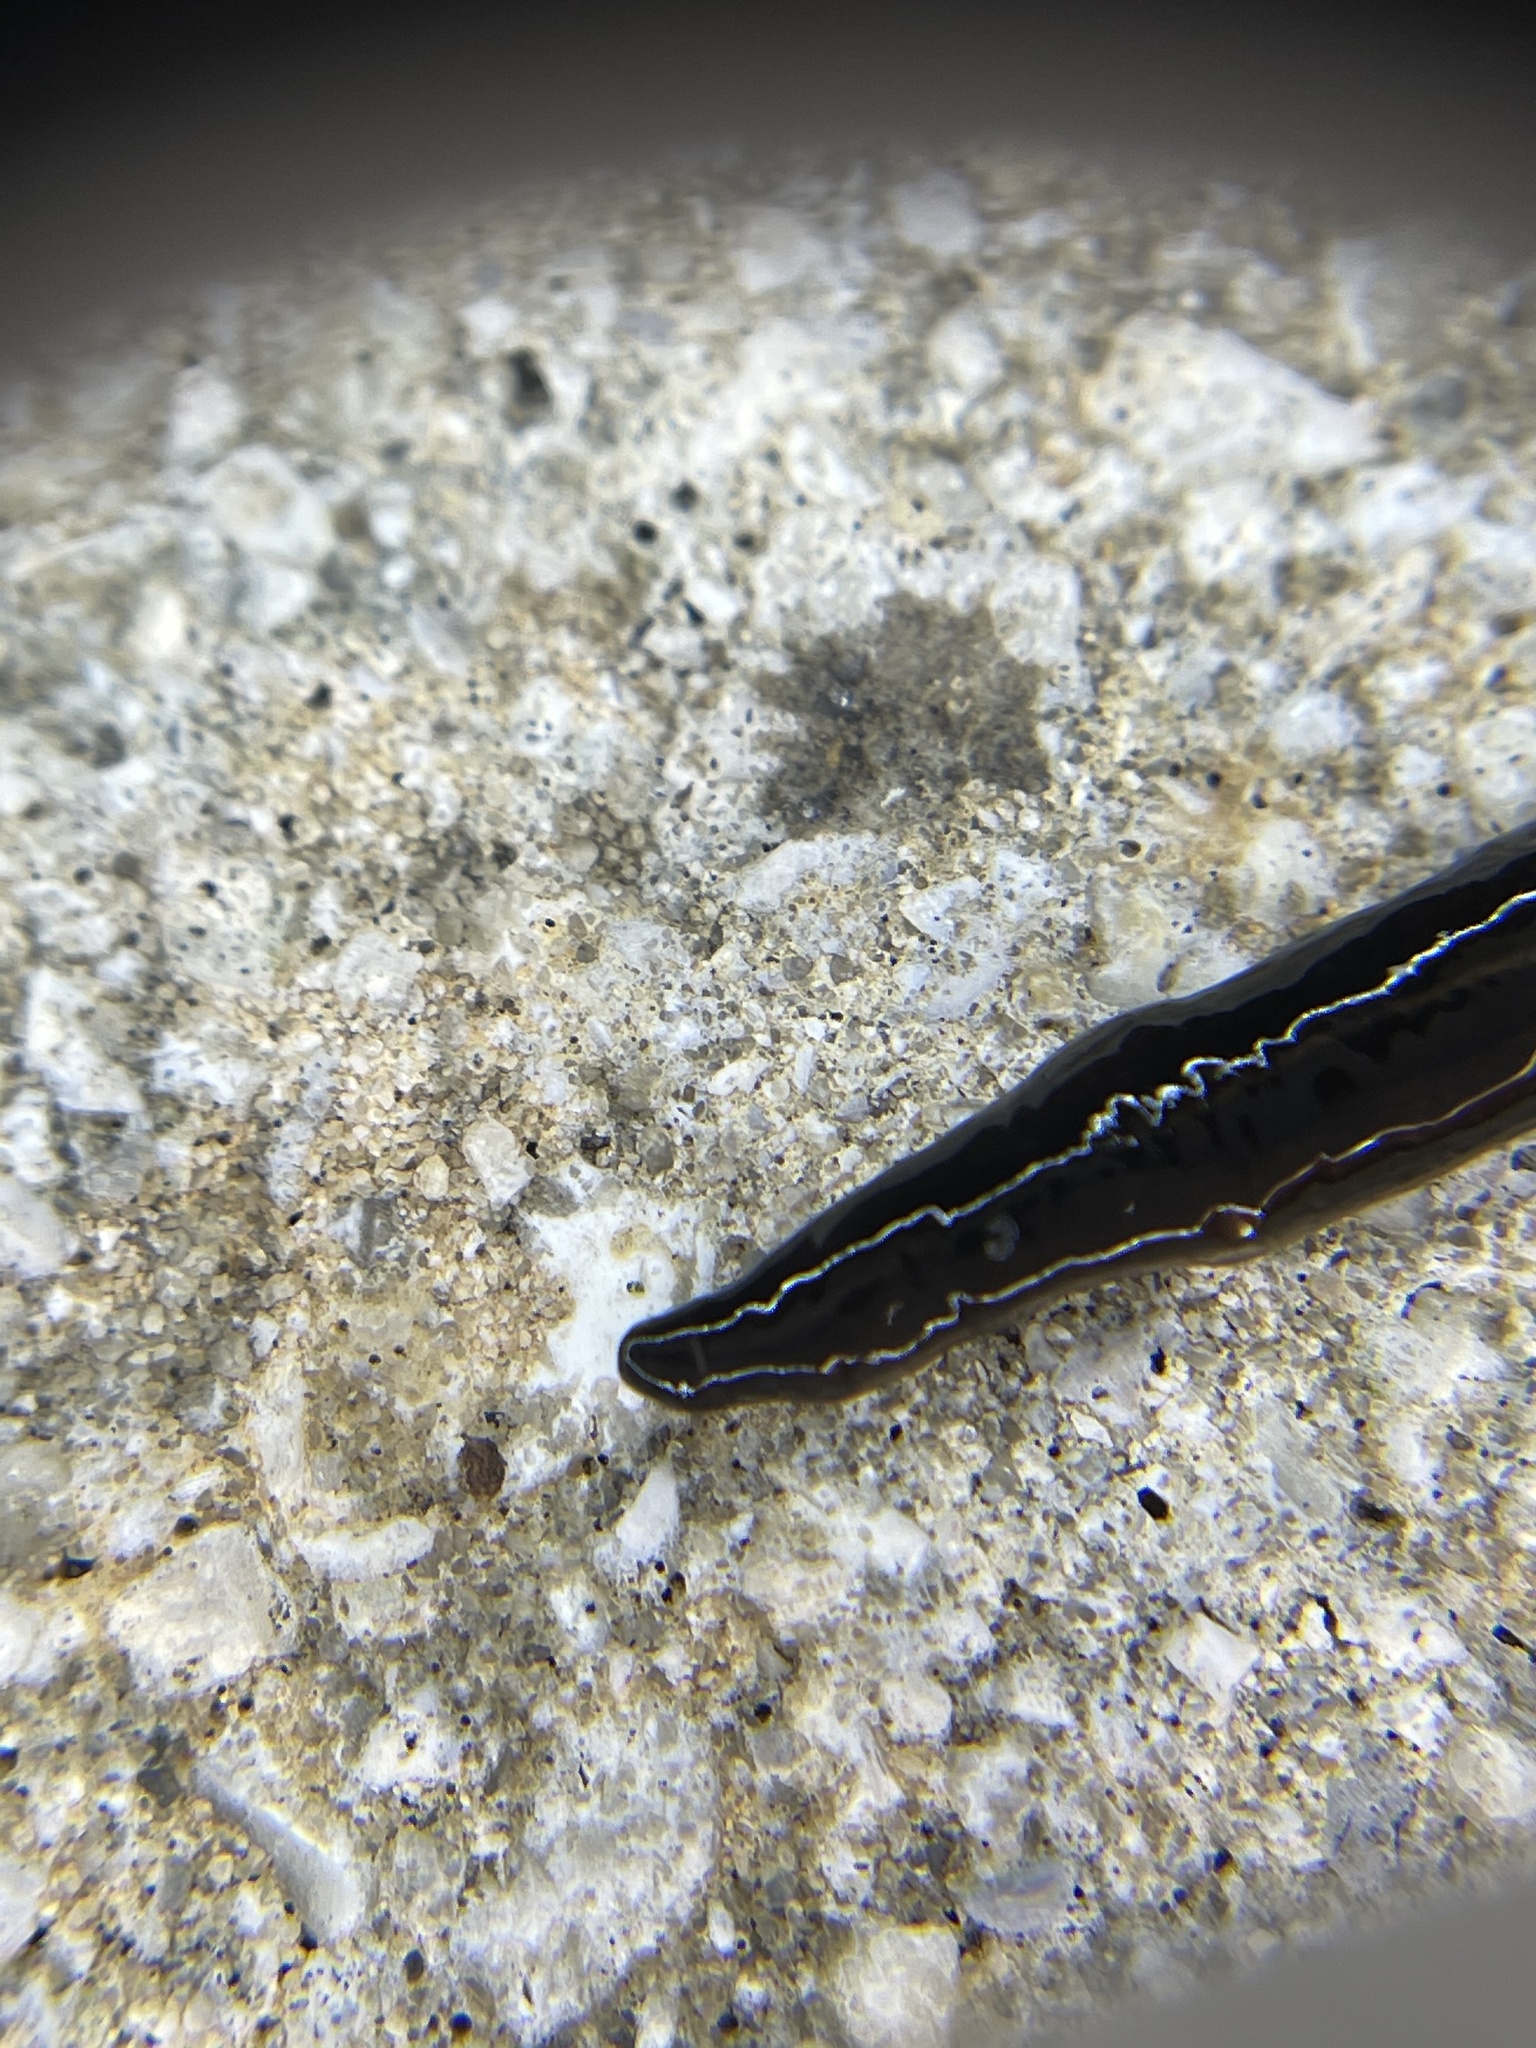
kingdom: Animalia
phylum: Platyhelminthes
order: Tricladida
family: Geoplanidae
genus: Platydemus
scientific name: Platydemus manokwari
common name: New guinea flatworm
